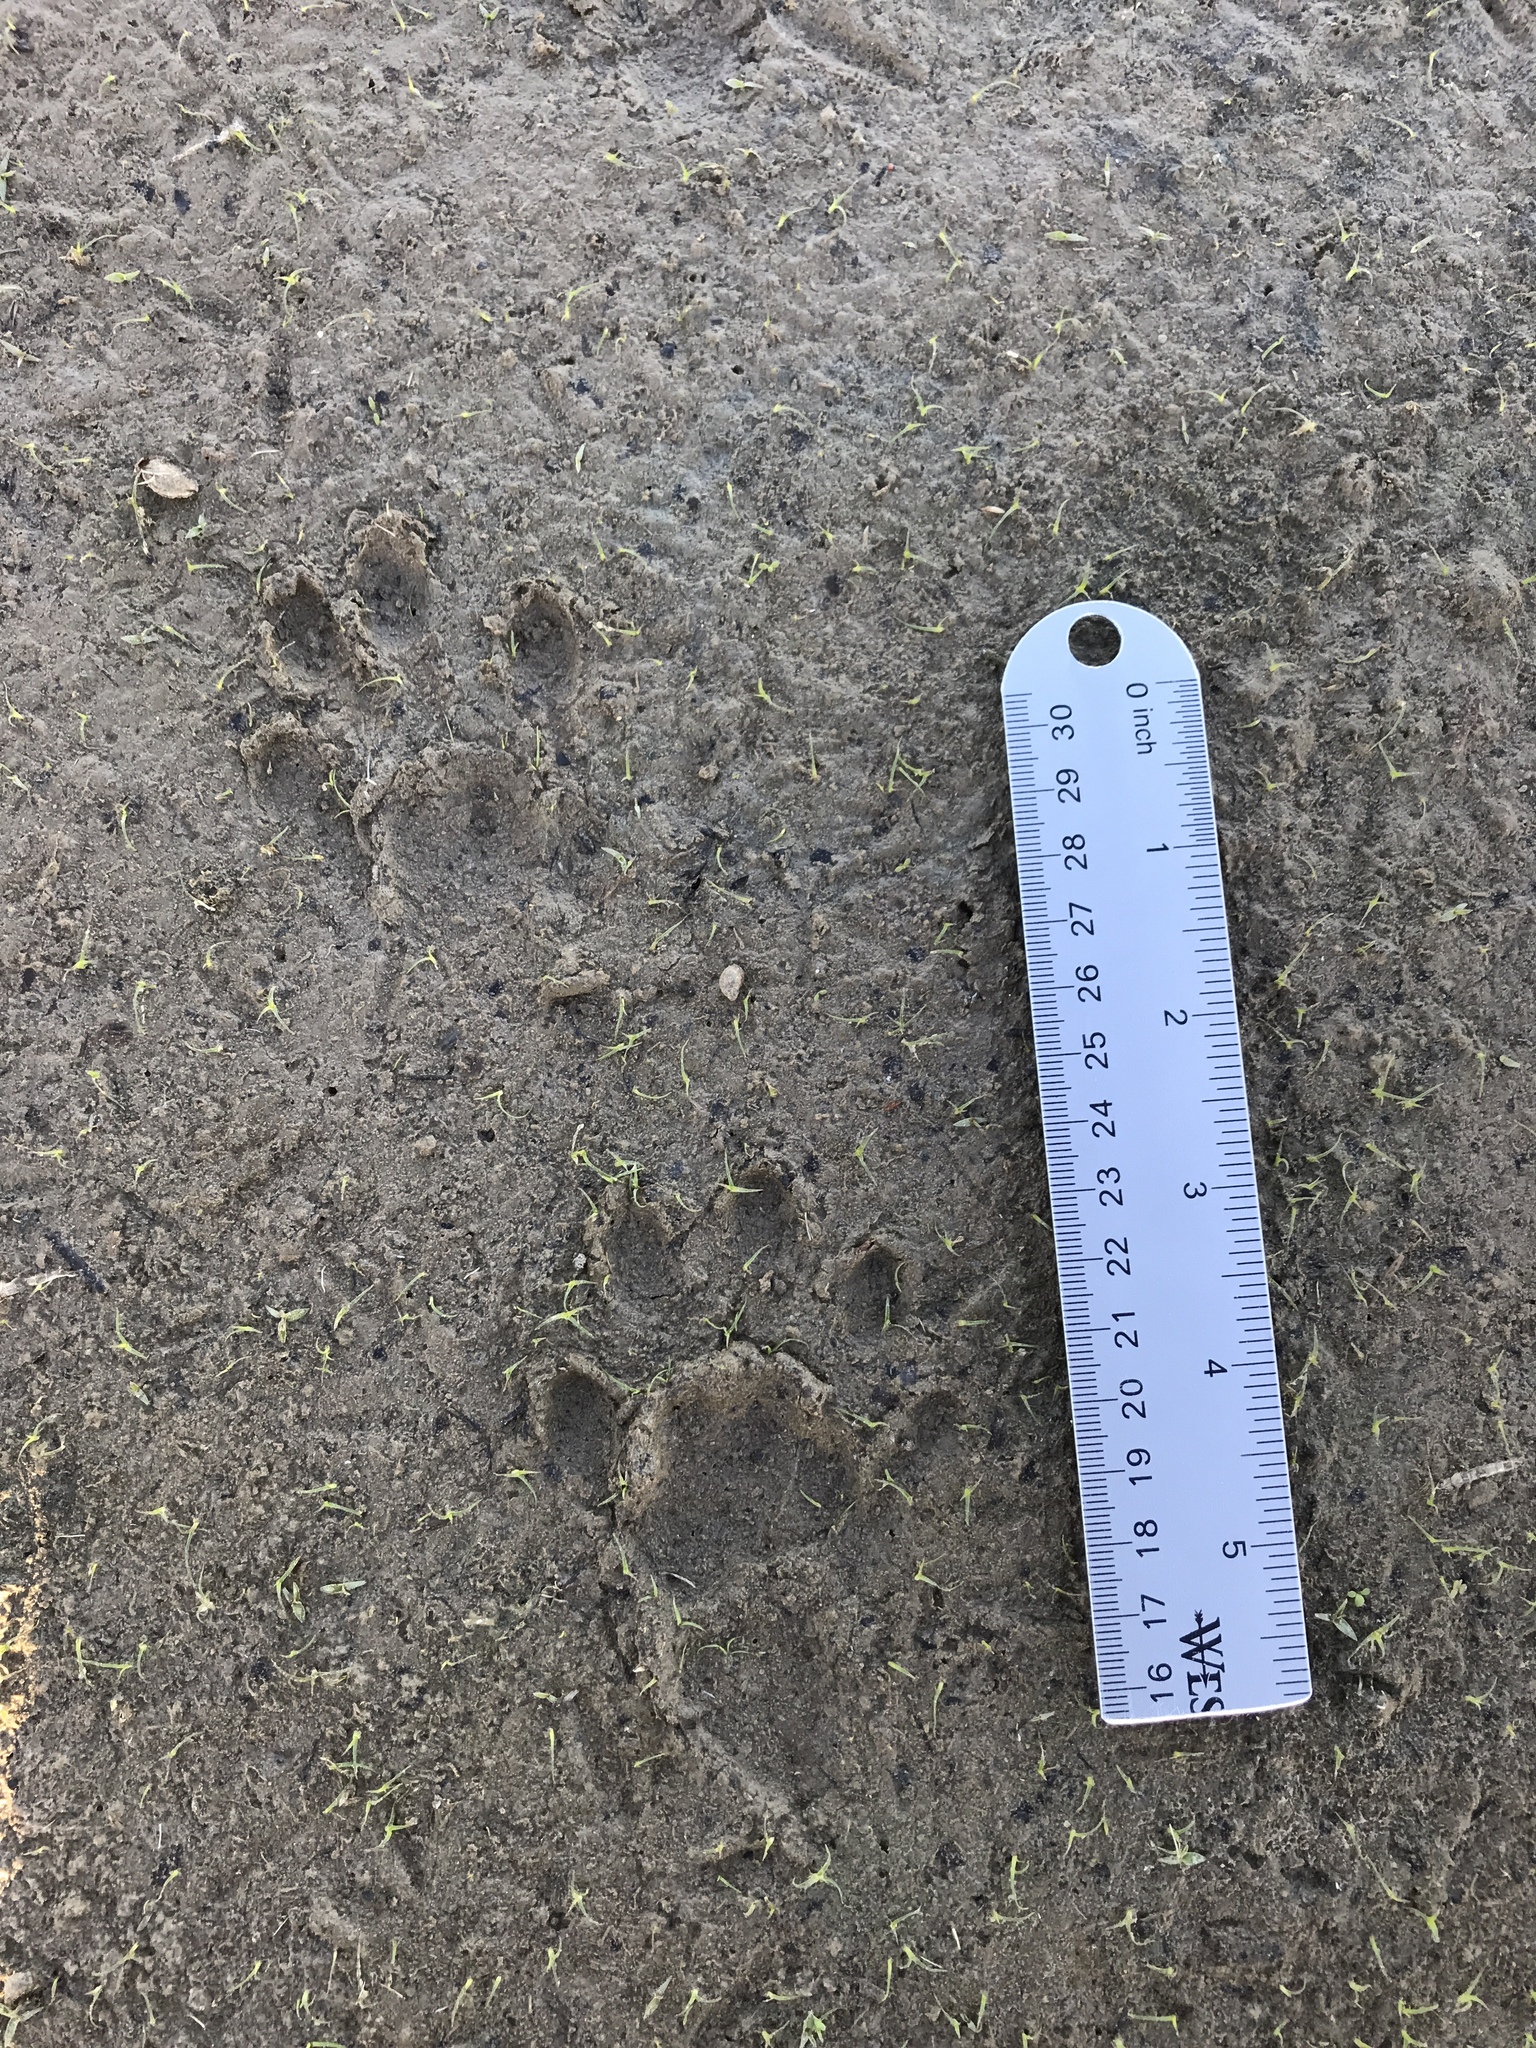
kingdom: Animalia
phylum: Chordata
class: Mammalia
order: Carnivora
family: Mustelidae
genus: Lontra
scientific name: Lontra canadensis
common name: North american river otter
